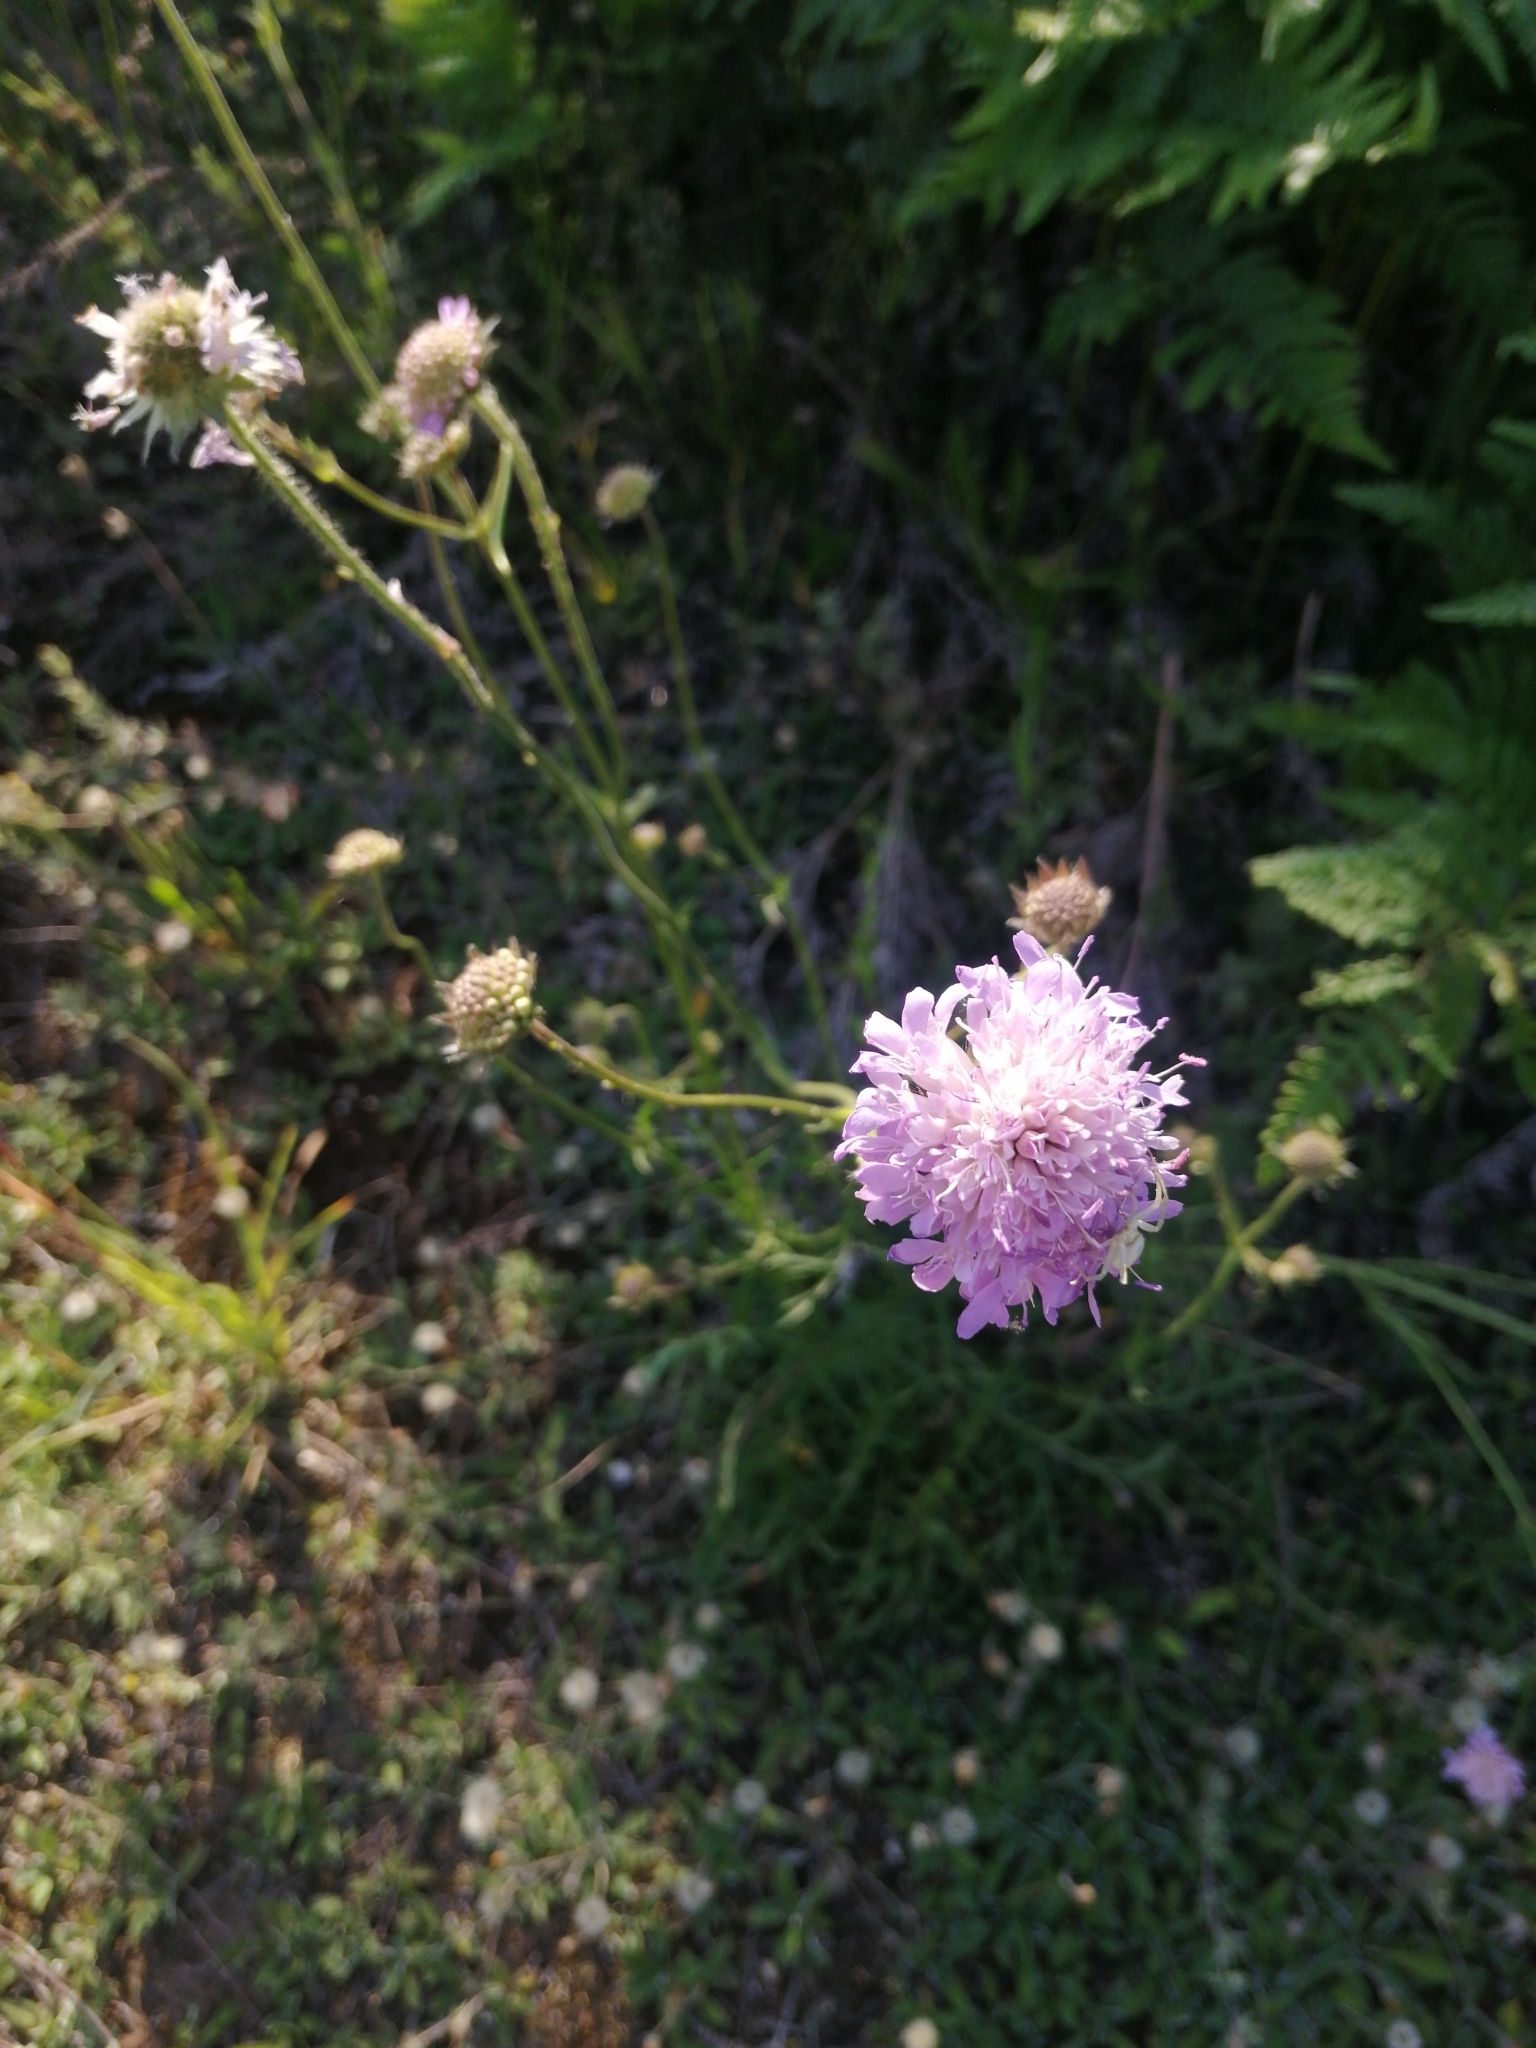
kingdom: Plantae
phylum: Tracheophyta
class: Magnoliopsida
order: Dipsacales
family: Caprifoliaceae
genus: Knautia
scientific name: Knautia arvensis
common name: Field scabiosa
